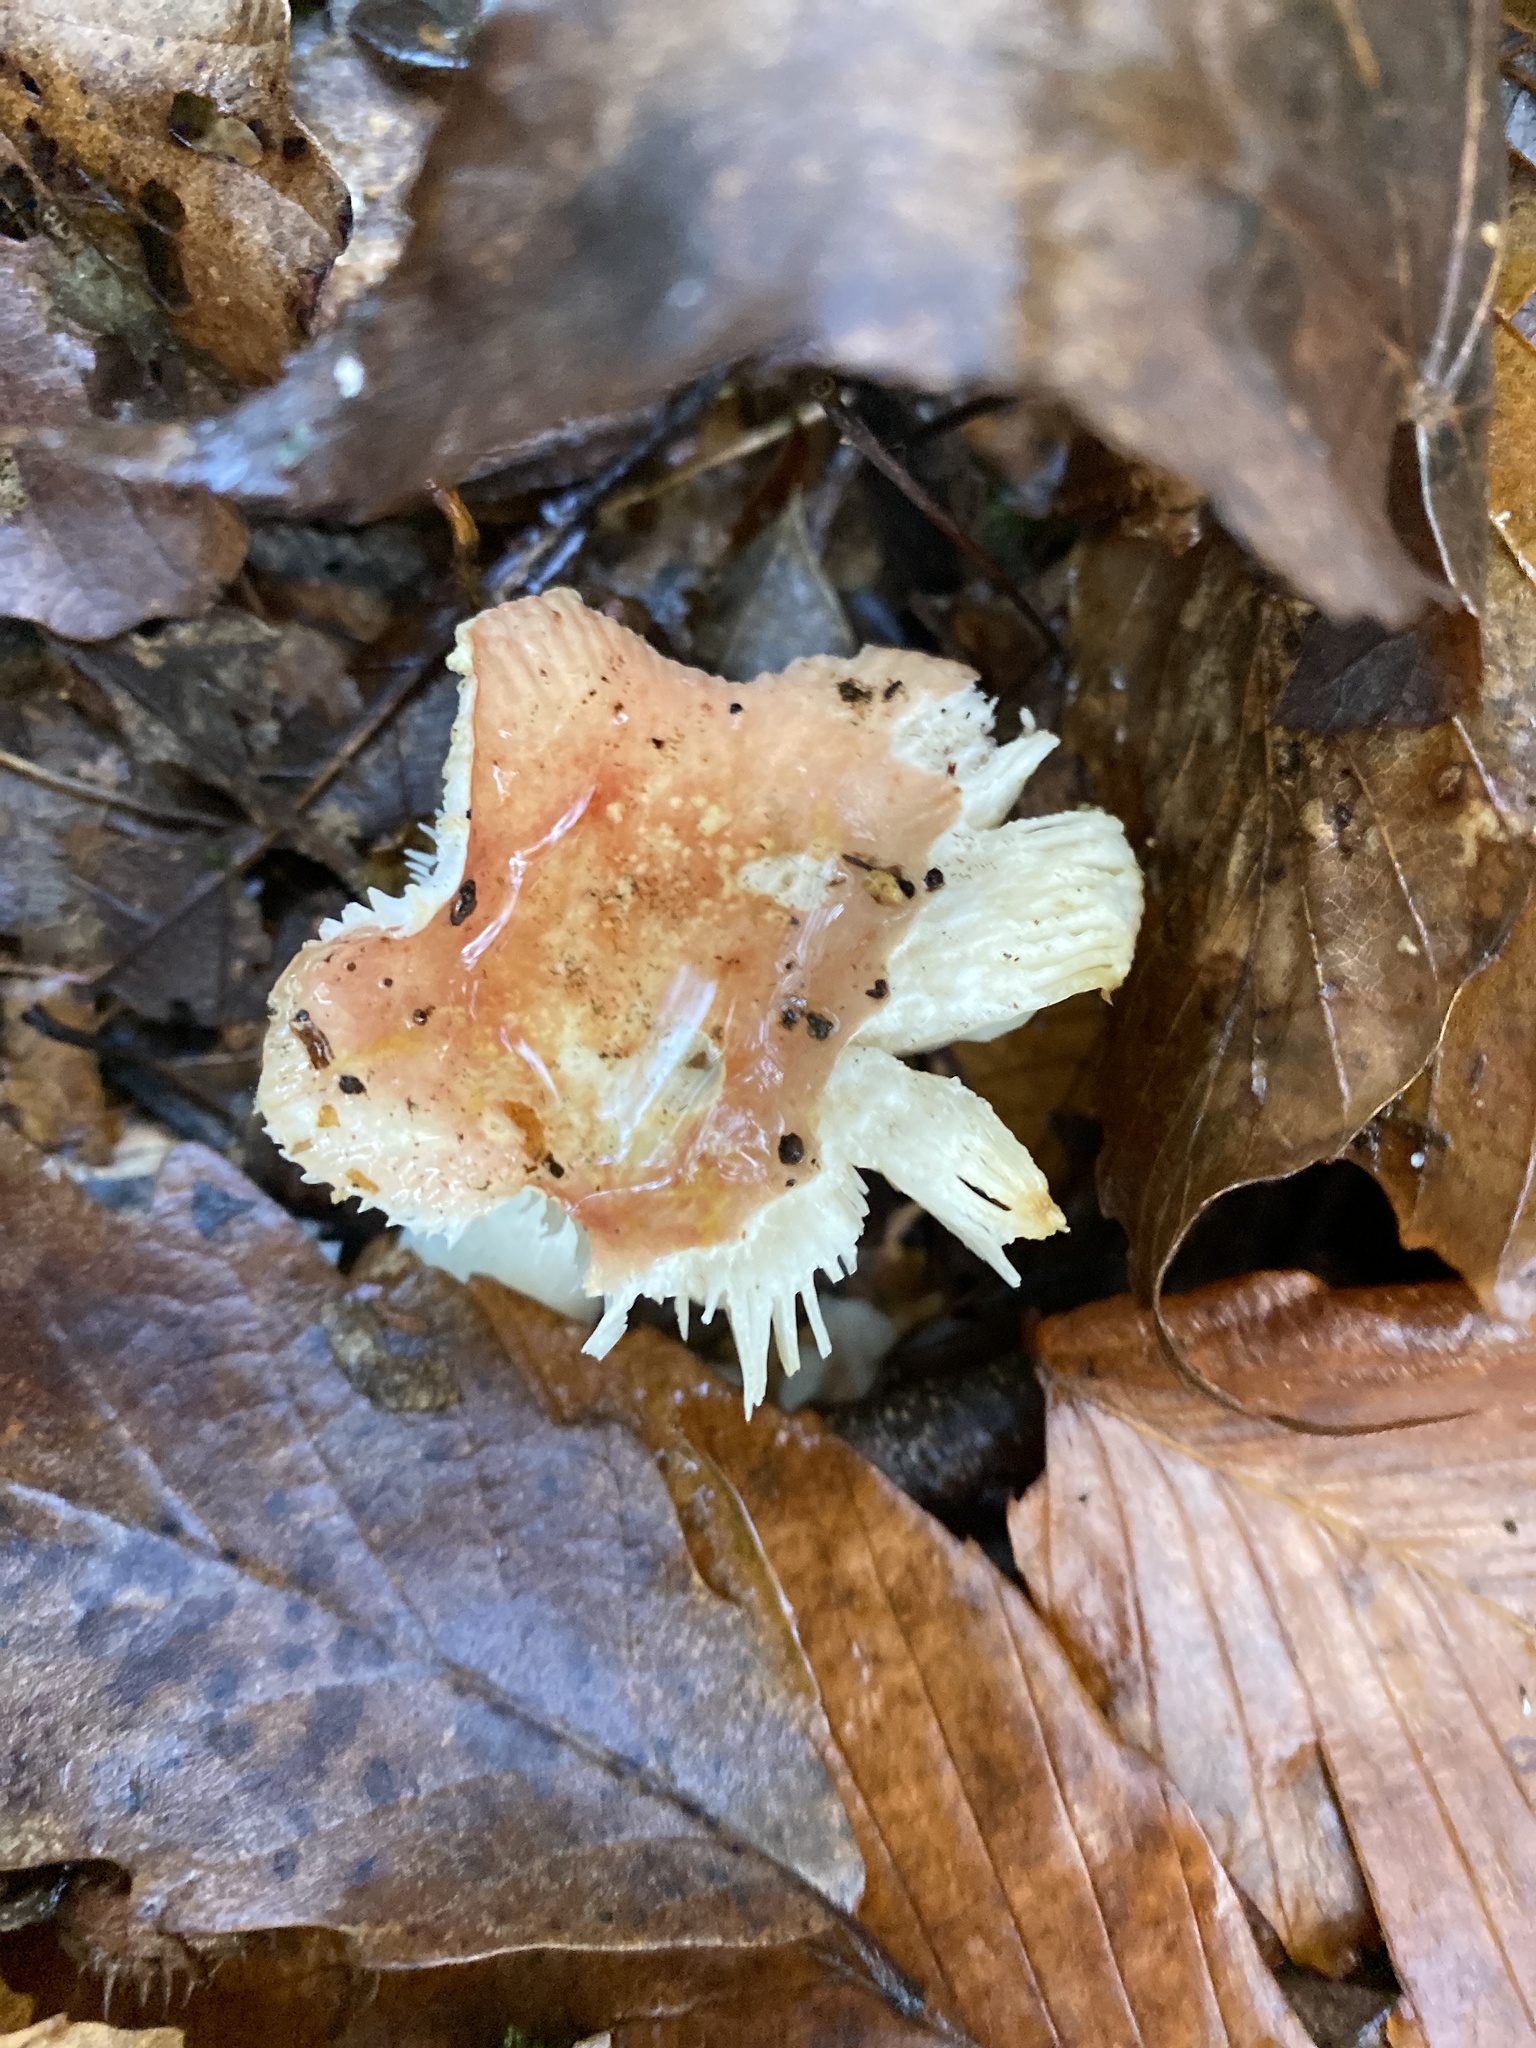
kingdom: Fungi
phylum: Basidiomycota
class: Agaricomycetes
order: Russulales
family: Russulaceae
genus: Russula
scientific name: Russula
